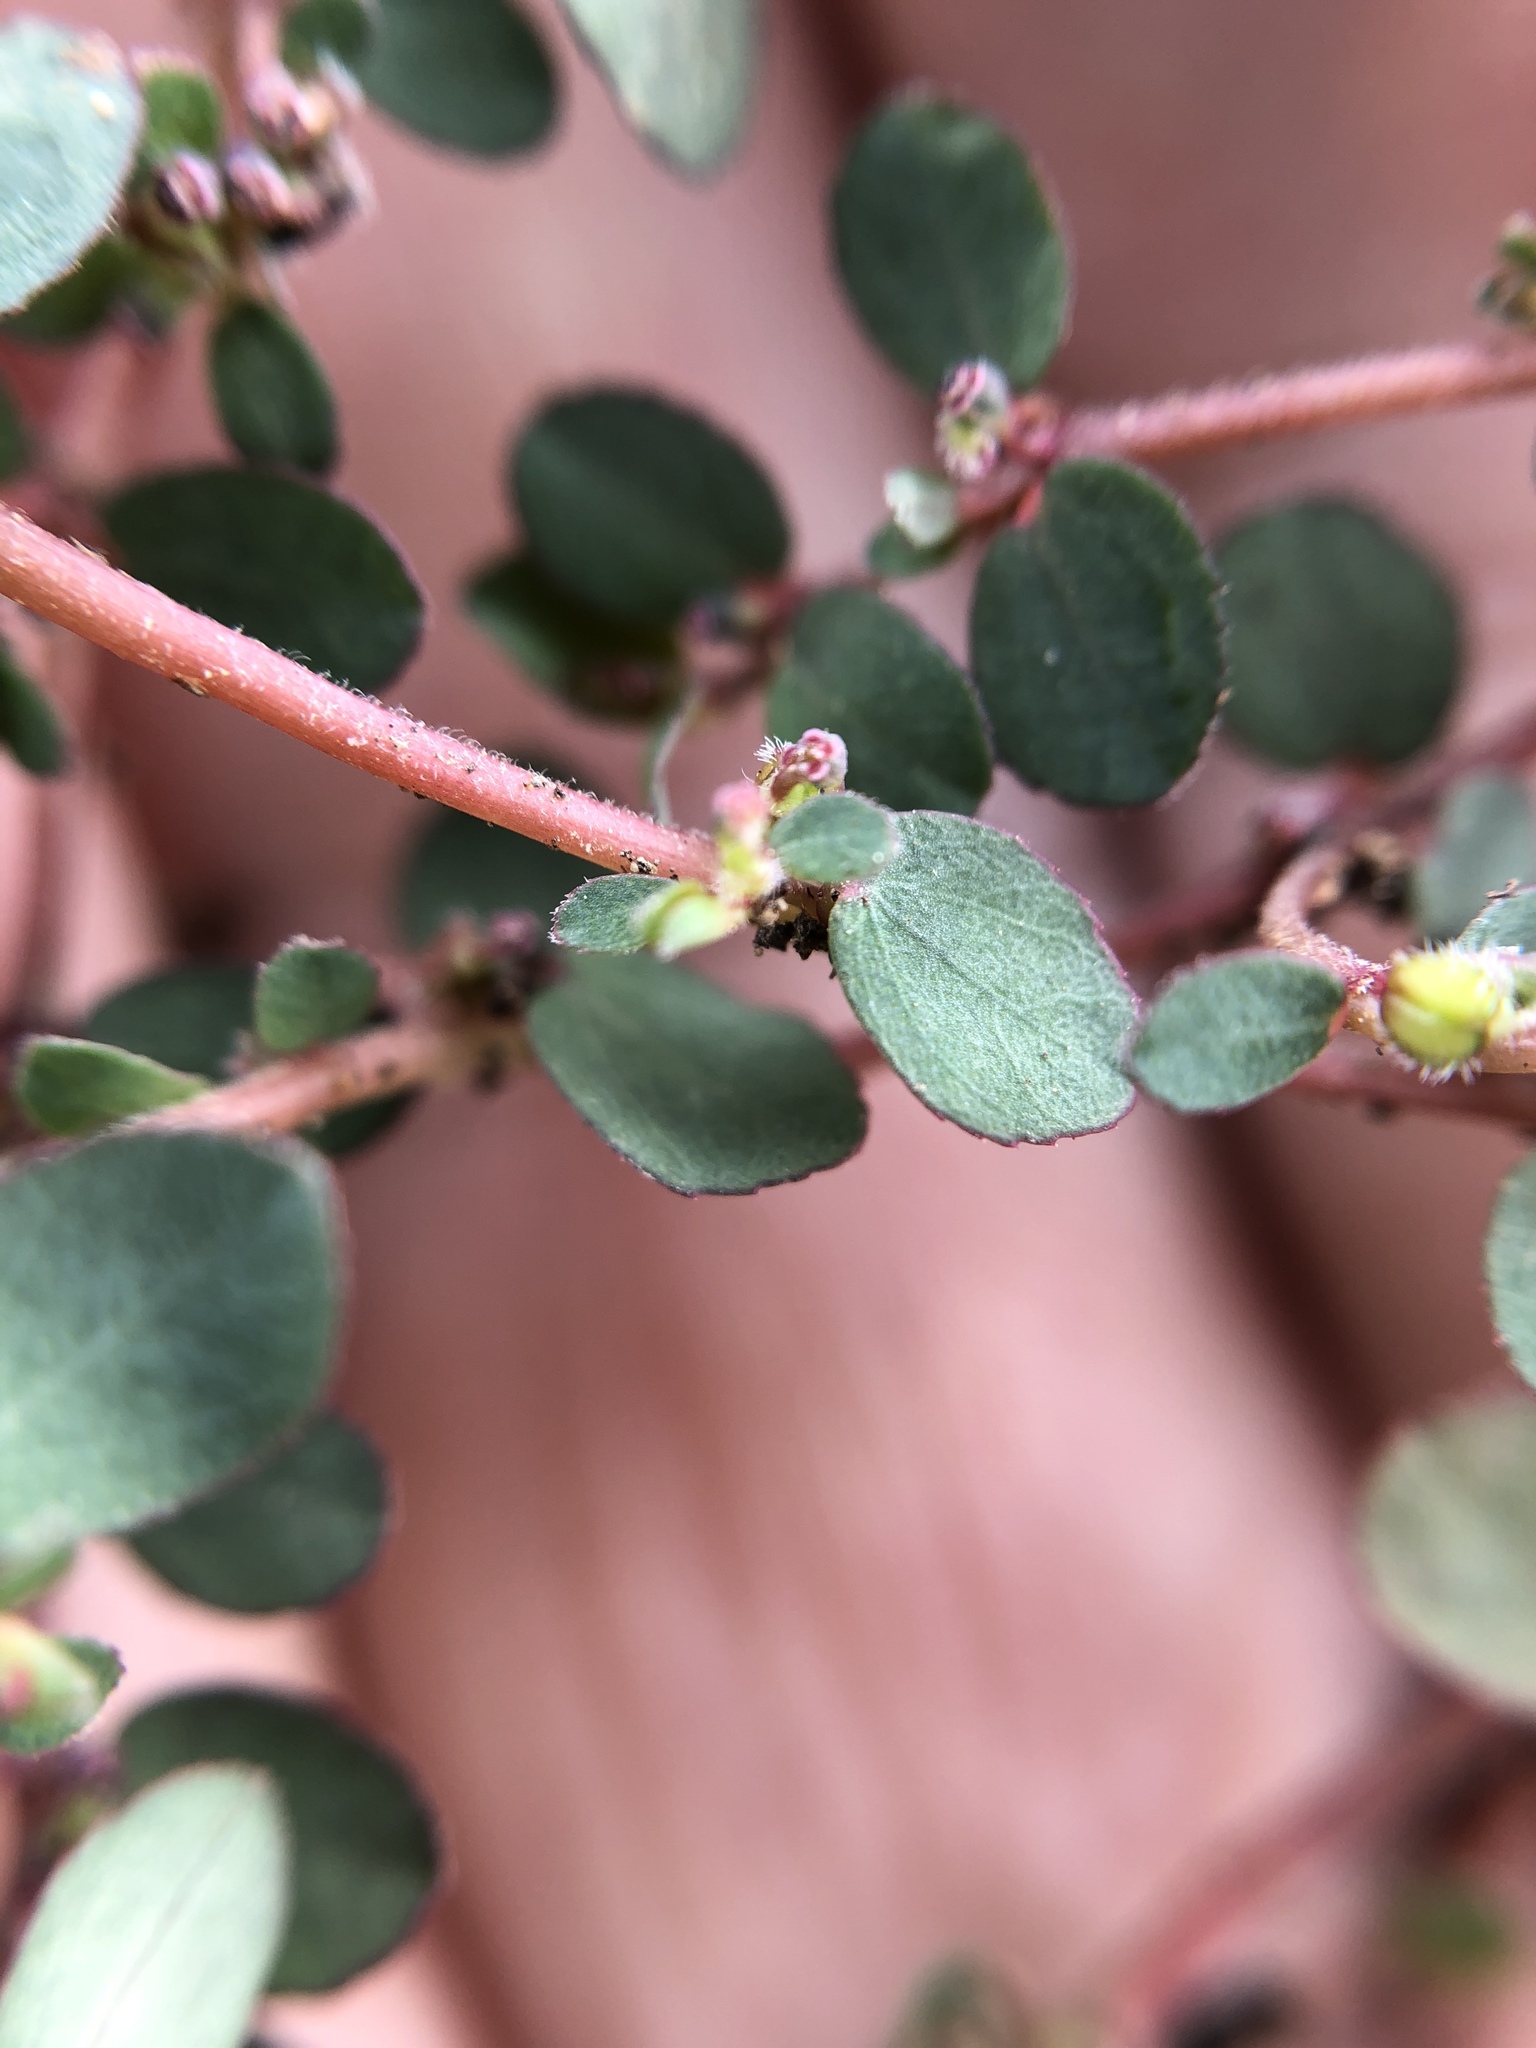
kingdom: Plantae
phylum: Tracheophyta
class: Magnoliopsida
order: Malpighiales
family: Euphorbiaceae
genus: Euphorbia
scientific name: Euphorbia prostrata
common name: Prostrate sandmat
